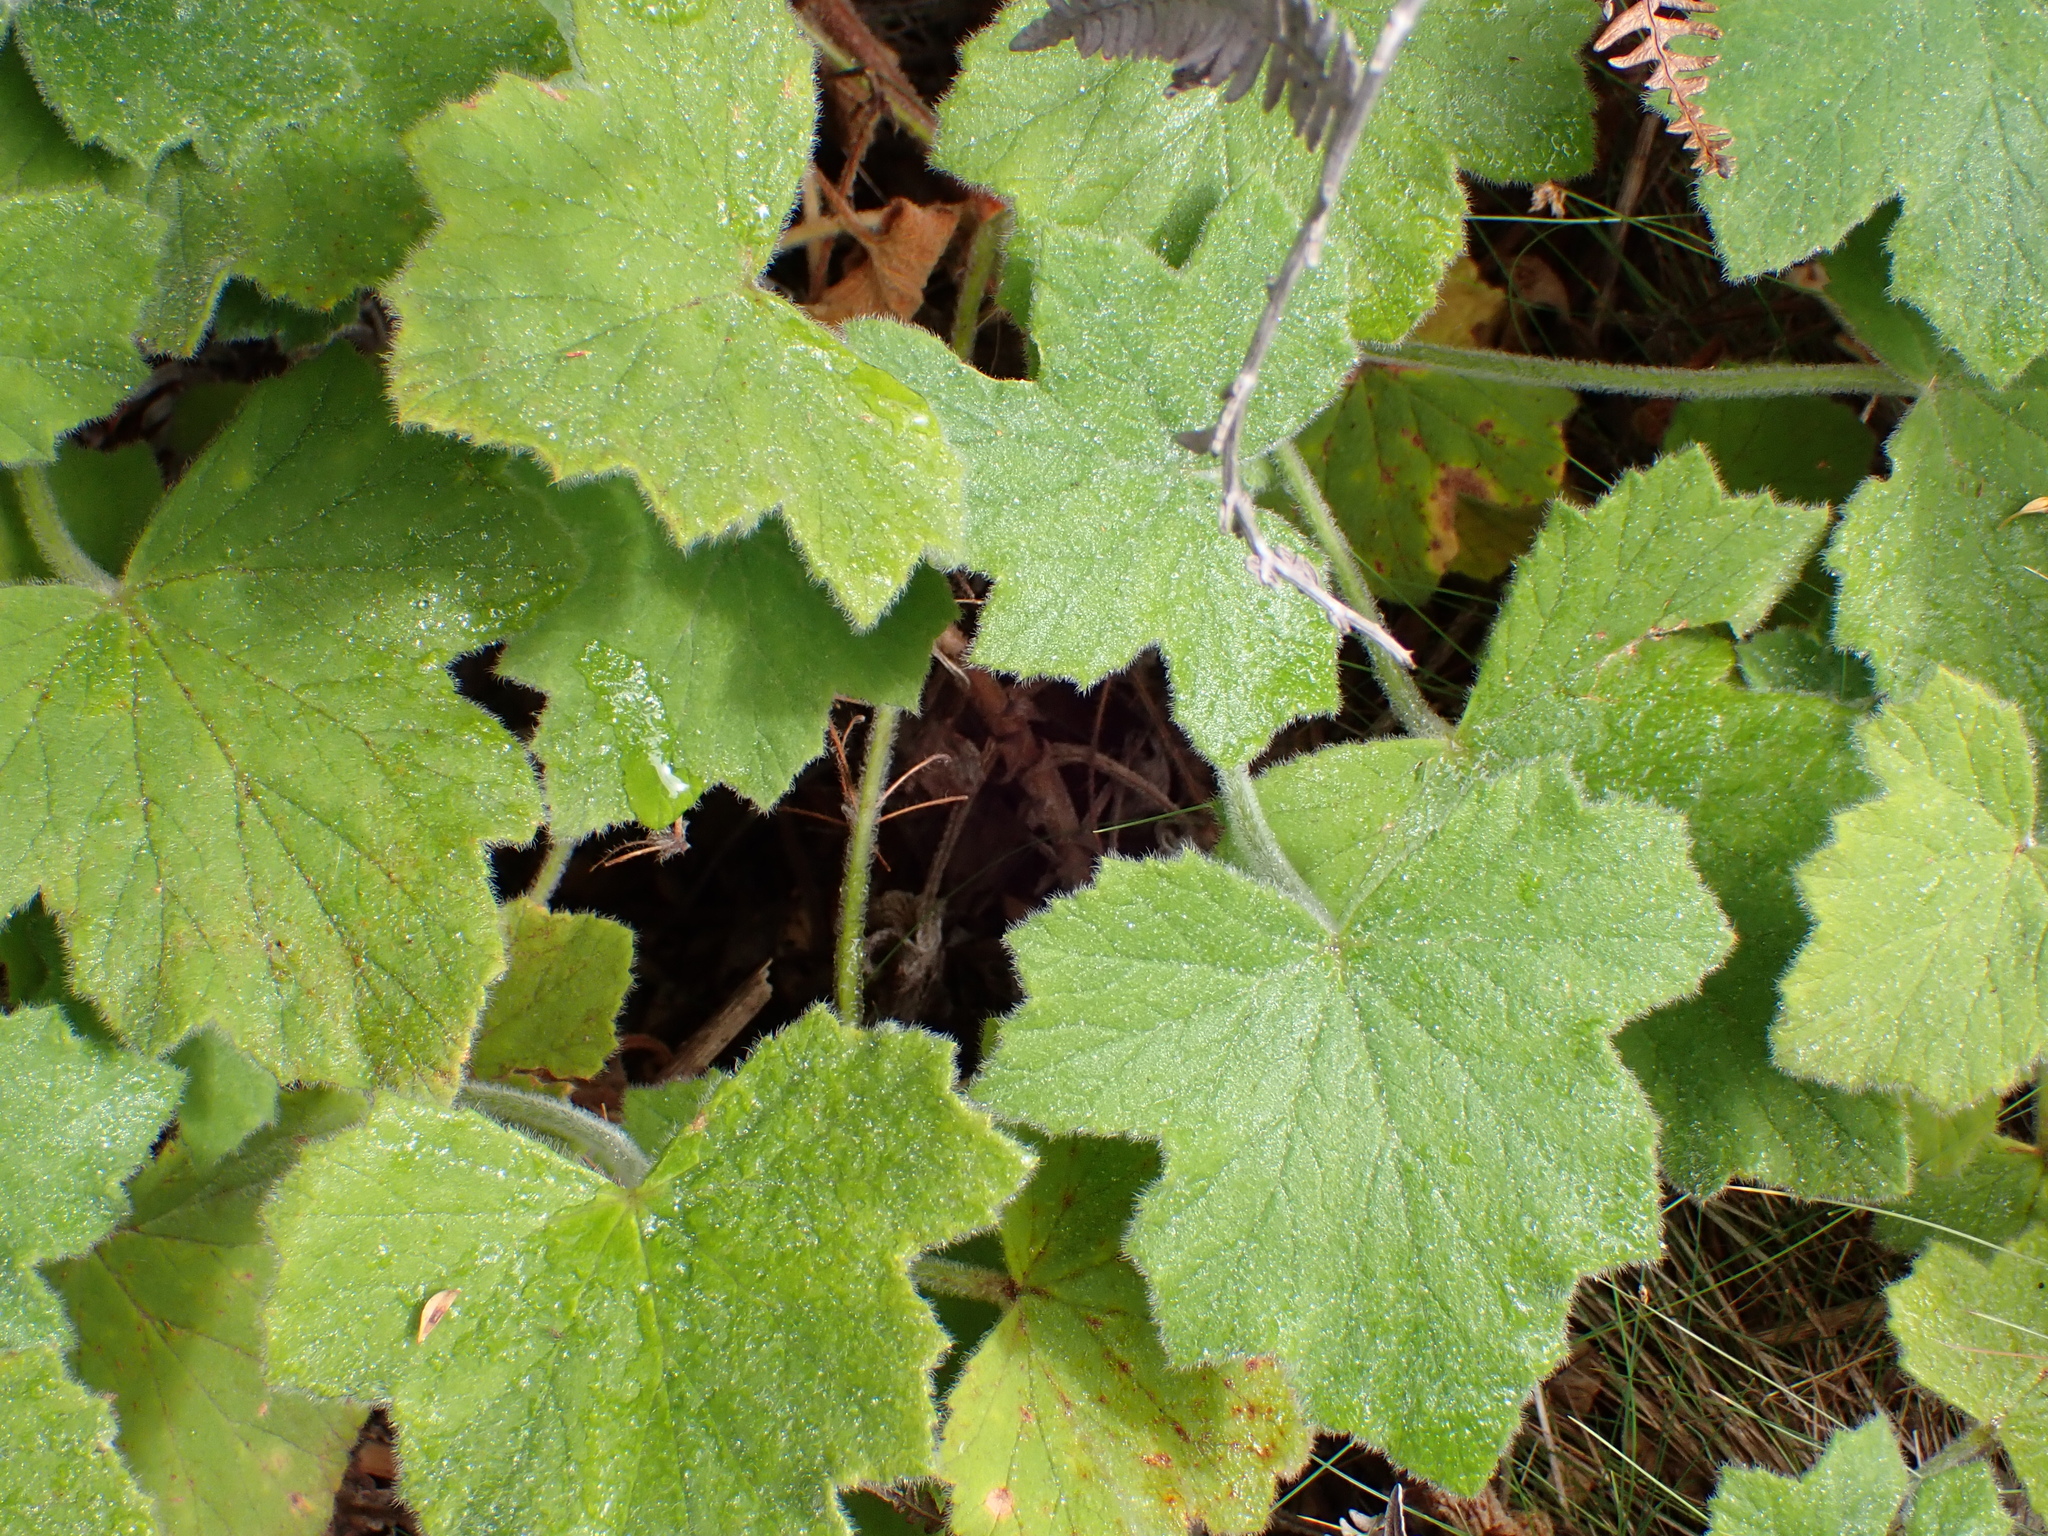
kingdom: Plantae
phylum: Tracheophyta
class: Magnoliopsida
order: Geraniales
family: Geraniaceae
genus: Pelargonium
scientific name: Pelargonium tomentosum
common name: Peppermint-scented geranium
